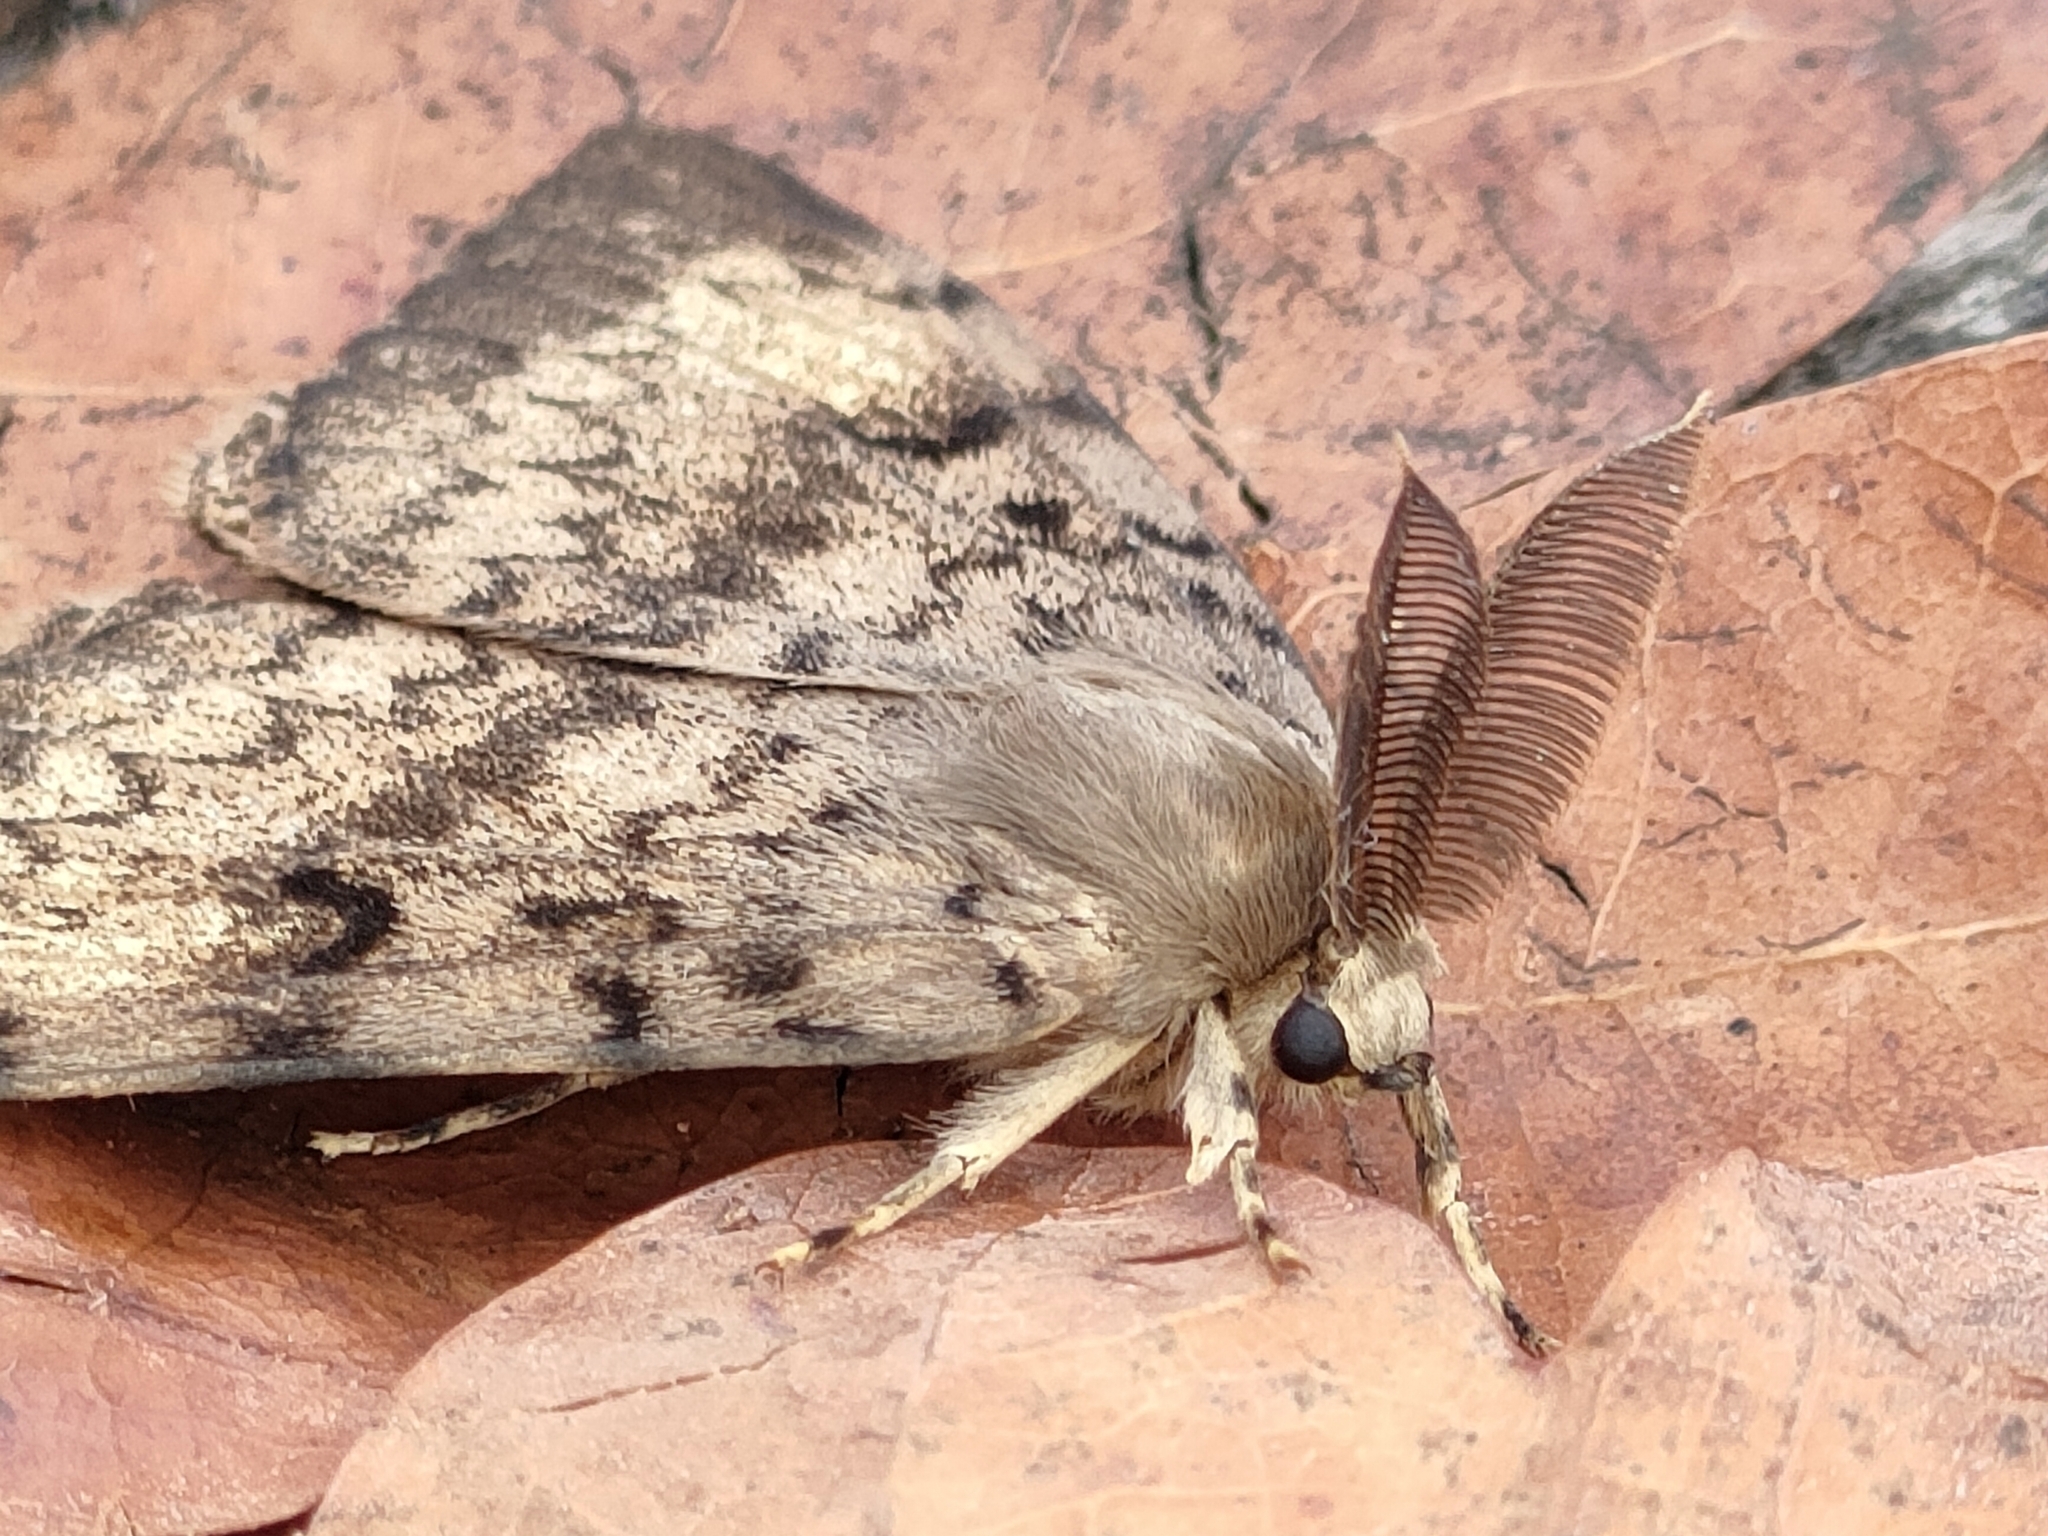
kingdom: Animalia
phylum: Arthropoda
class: Insecta
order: Lepidoptera
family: Erebidae
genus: Lymantria
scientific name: Lymantria dispar
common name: Gypsy moth
